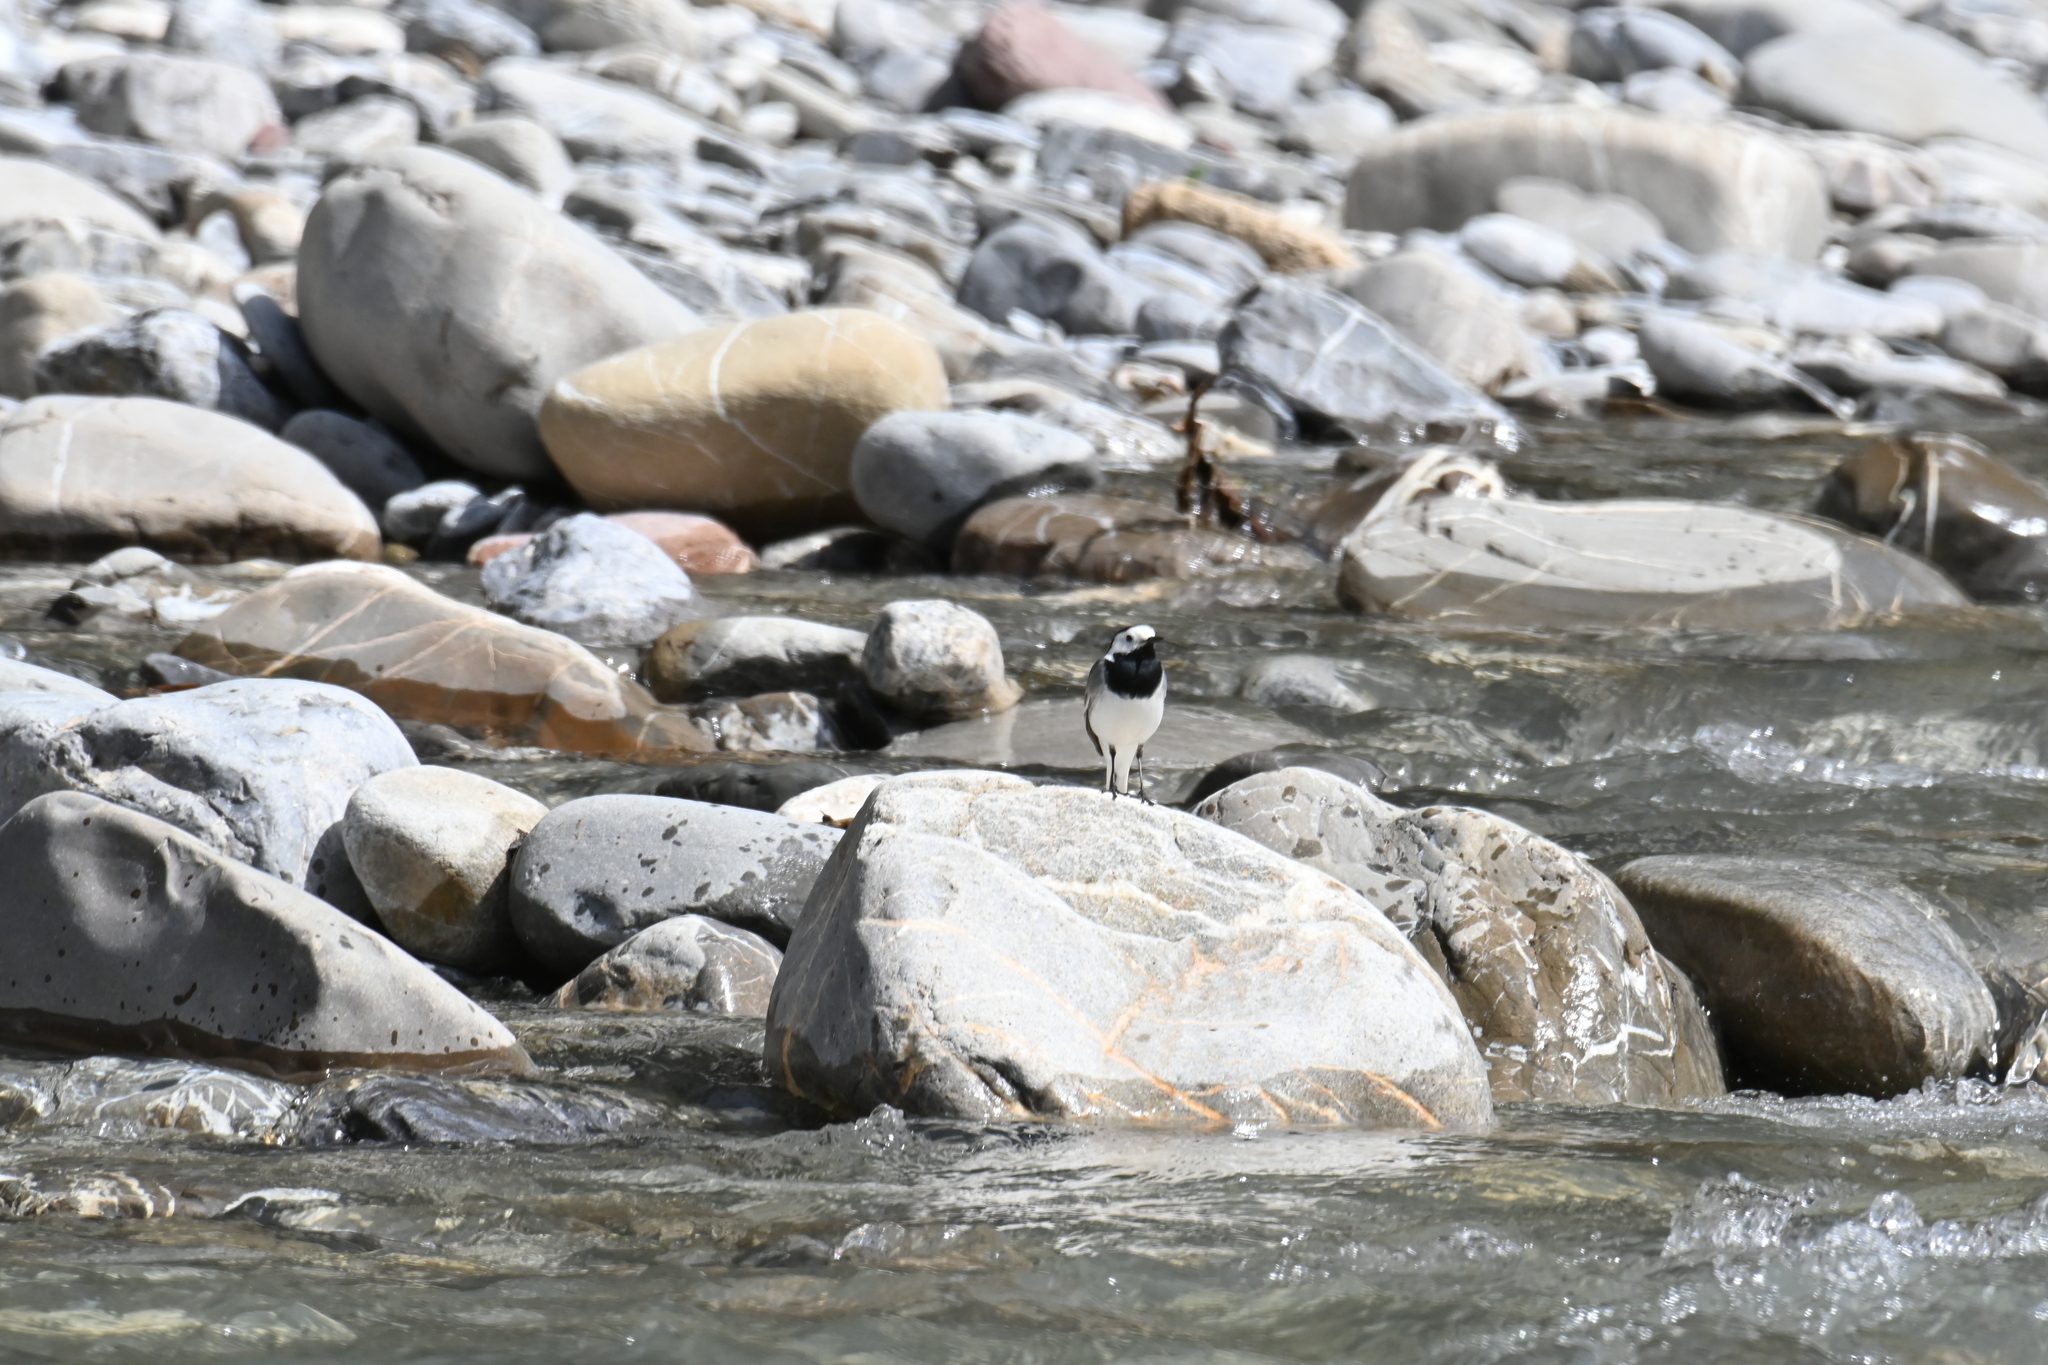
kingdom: Animalia
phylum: Chordata
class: Aves
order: Passeriformes
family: Motacillidae
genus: Motacilla
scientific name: Motacilla alba
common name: White wagtail
